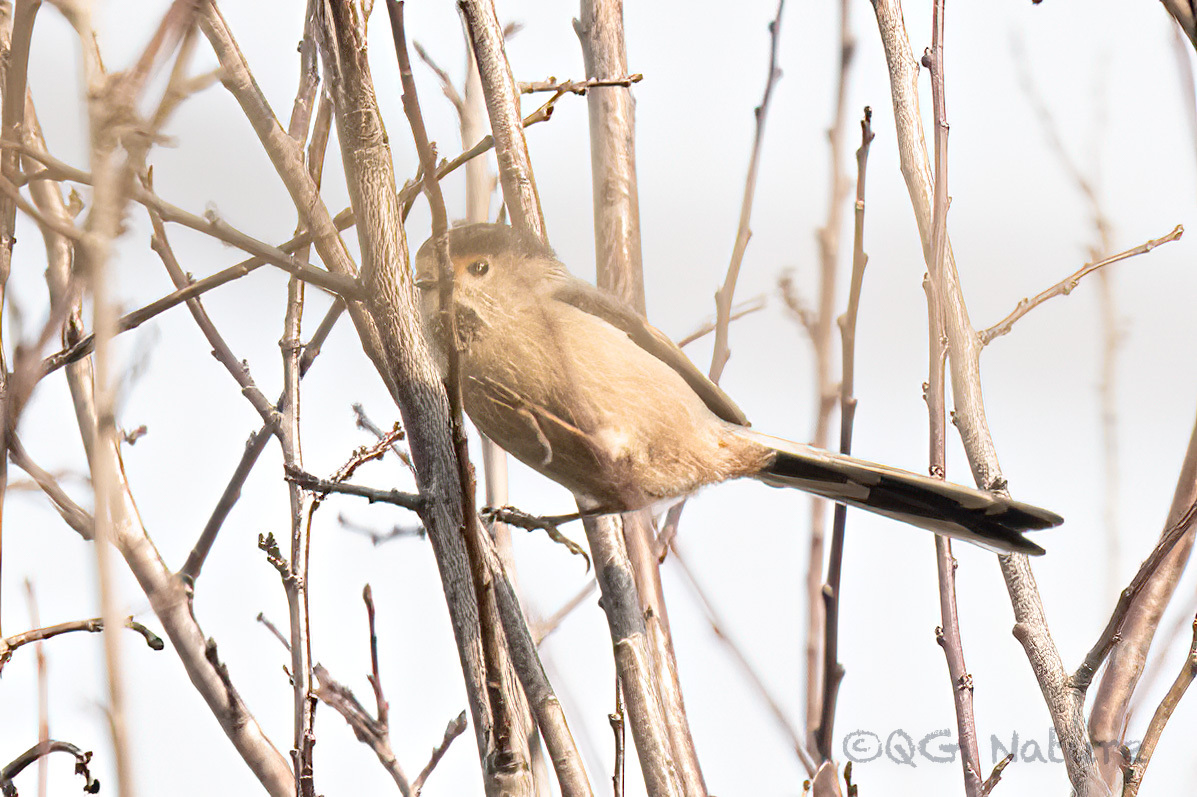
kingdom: Animalia
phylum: Chordata
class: Aves
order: Passeriformes
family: Aegithalidae
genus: Aegithalos
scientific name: Aegithalos glaucogularis
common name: Silver-throated bushtit
